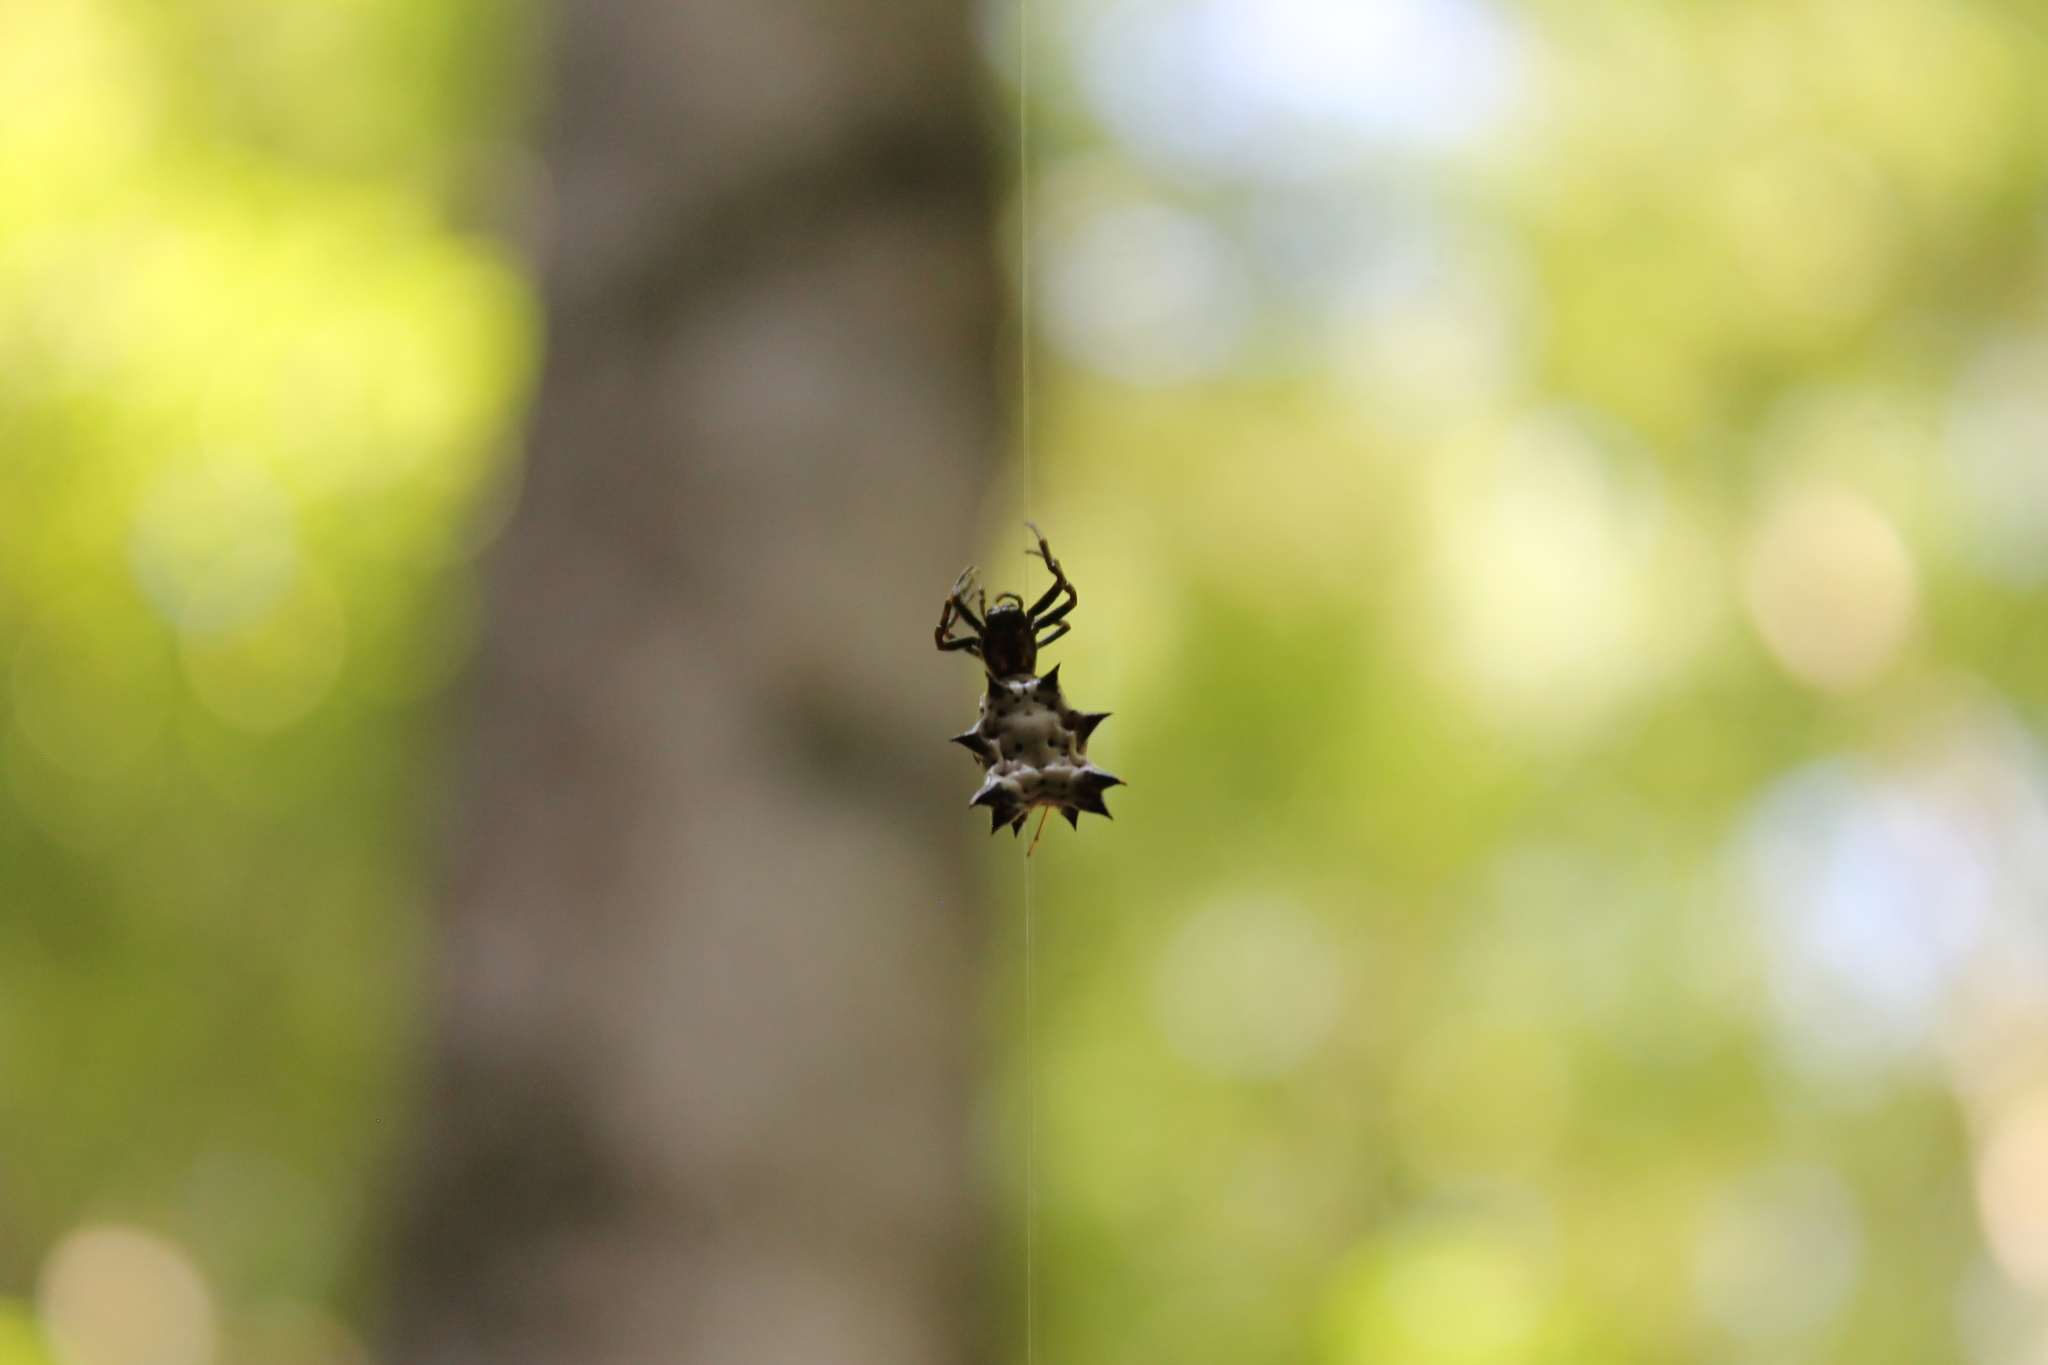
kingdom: Animalia
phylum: Arthropoda
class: Arachnida
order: Araneae
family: Araneidae
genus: Micrathena
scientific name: Micrathena gracilis
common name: Orb weavers
